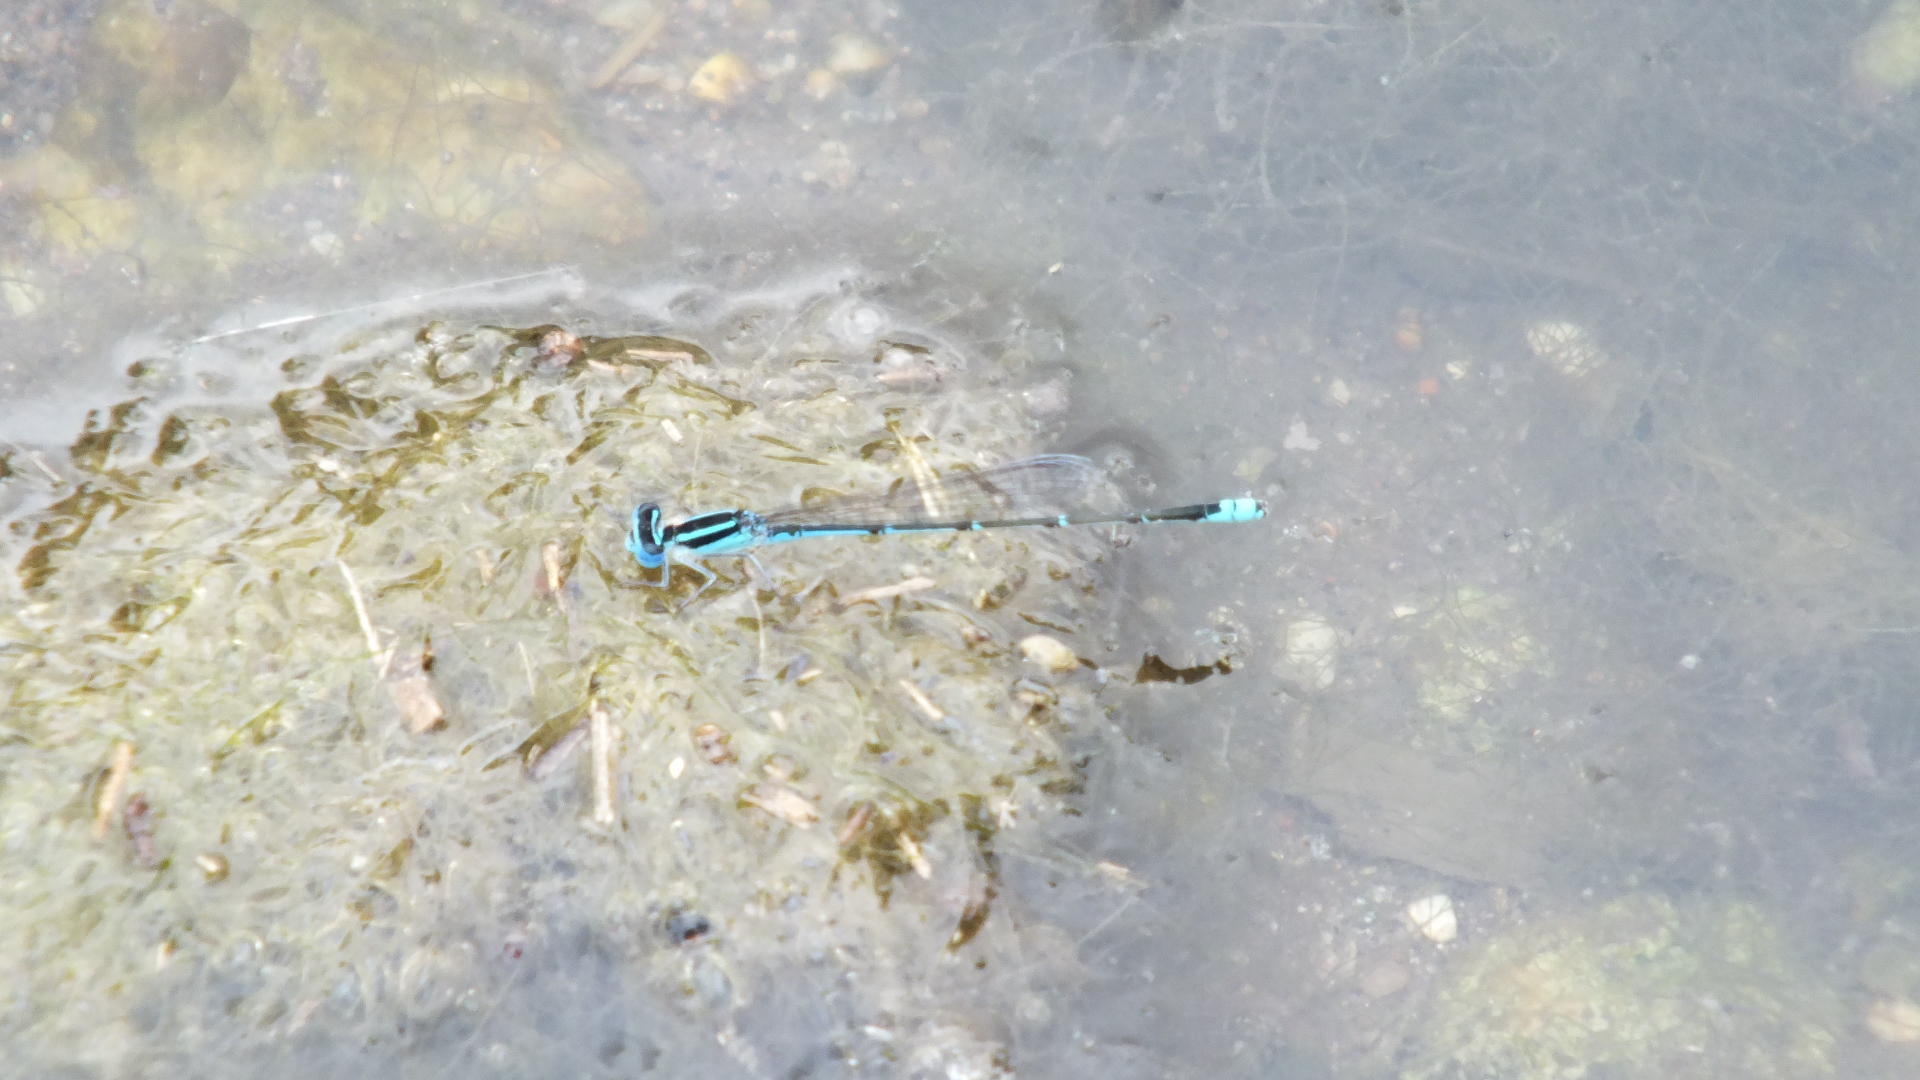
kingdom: Animalia
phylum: Arthropoda
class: Insecta
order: Odonata
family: Coenagrionidae
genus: Azuragrion
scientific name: Azuragrion nigridorsum
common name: Sailing azuret
